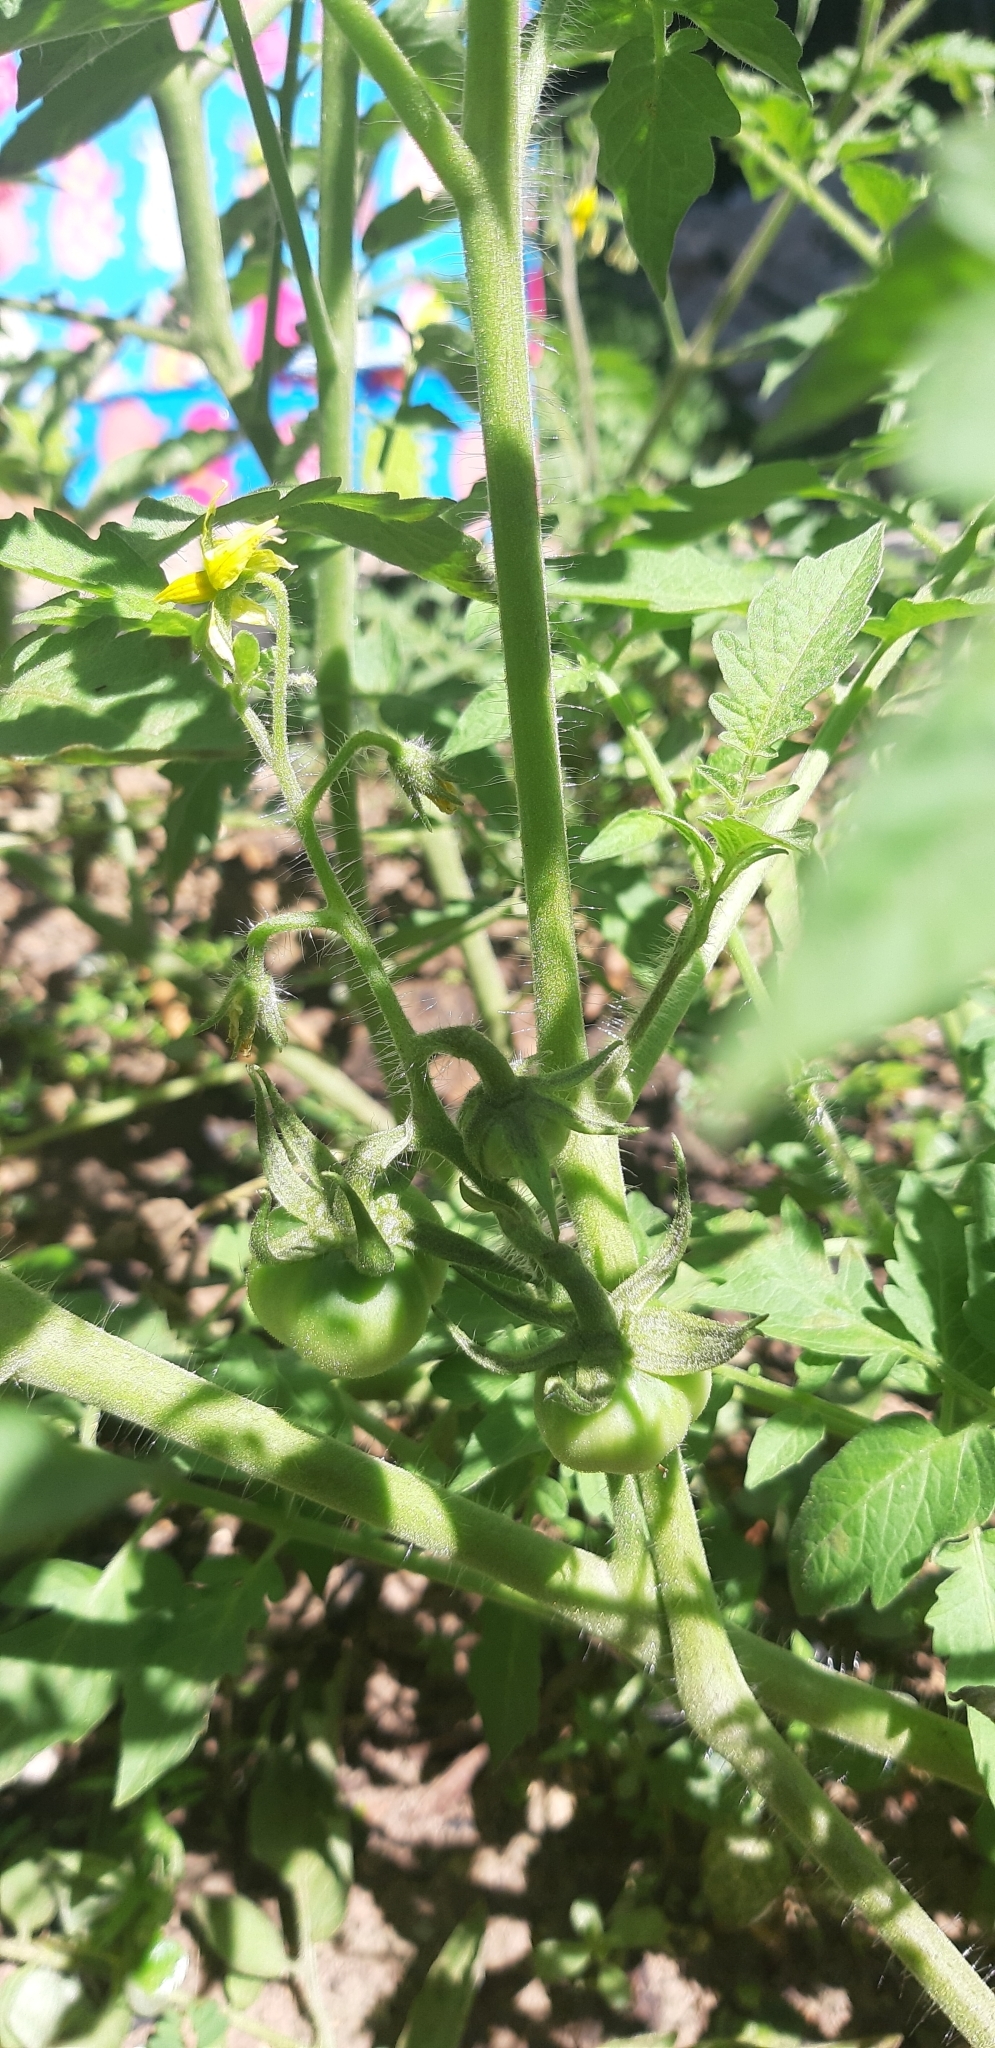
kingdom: Plantae
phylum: Tracheophyta
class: Magnoliopsida
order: Solanales
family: Solanaceae
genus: Solanum
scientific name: Solanum lycopersicum
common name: Garden tomato
